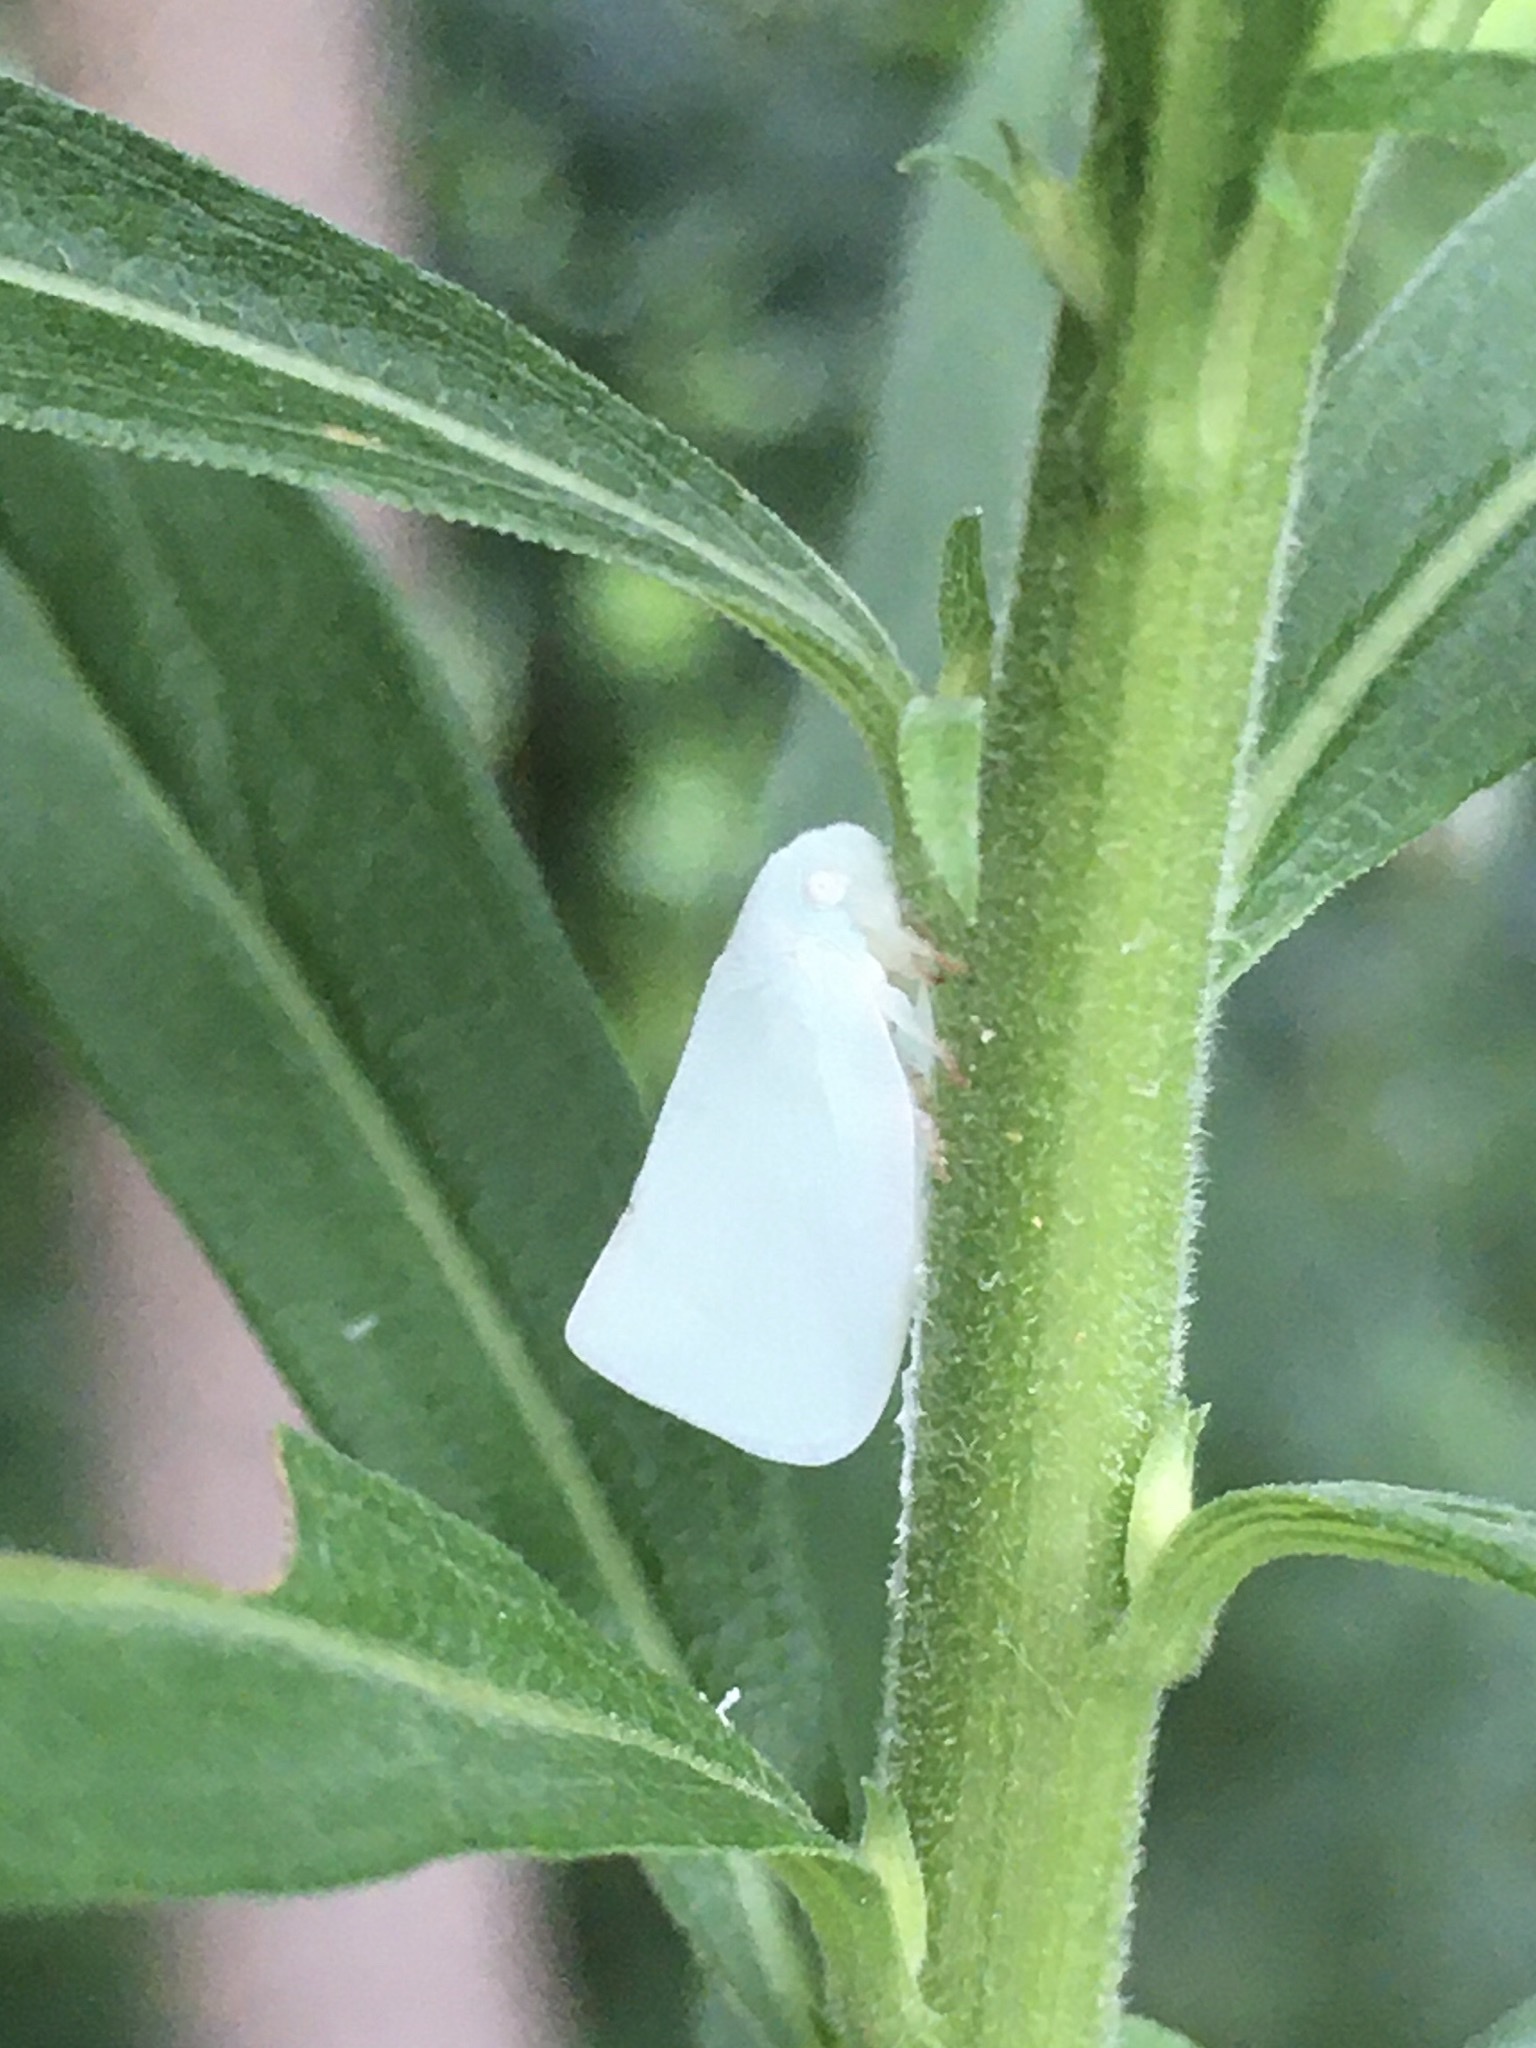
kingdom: Animalia
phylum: Arthropoda
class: Insecta
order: Hemiptera
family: Flatidae
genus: Flatormenis
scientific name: Flatormenis proxima
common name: Northern flatid planthopper
